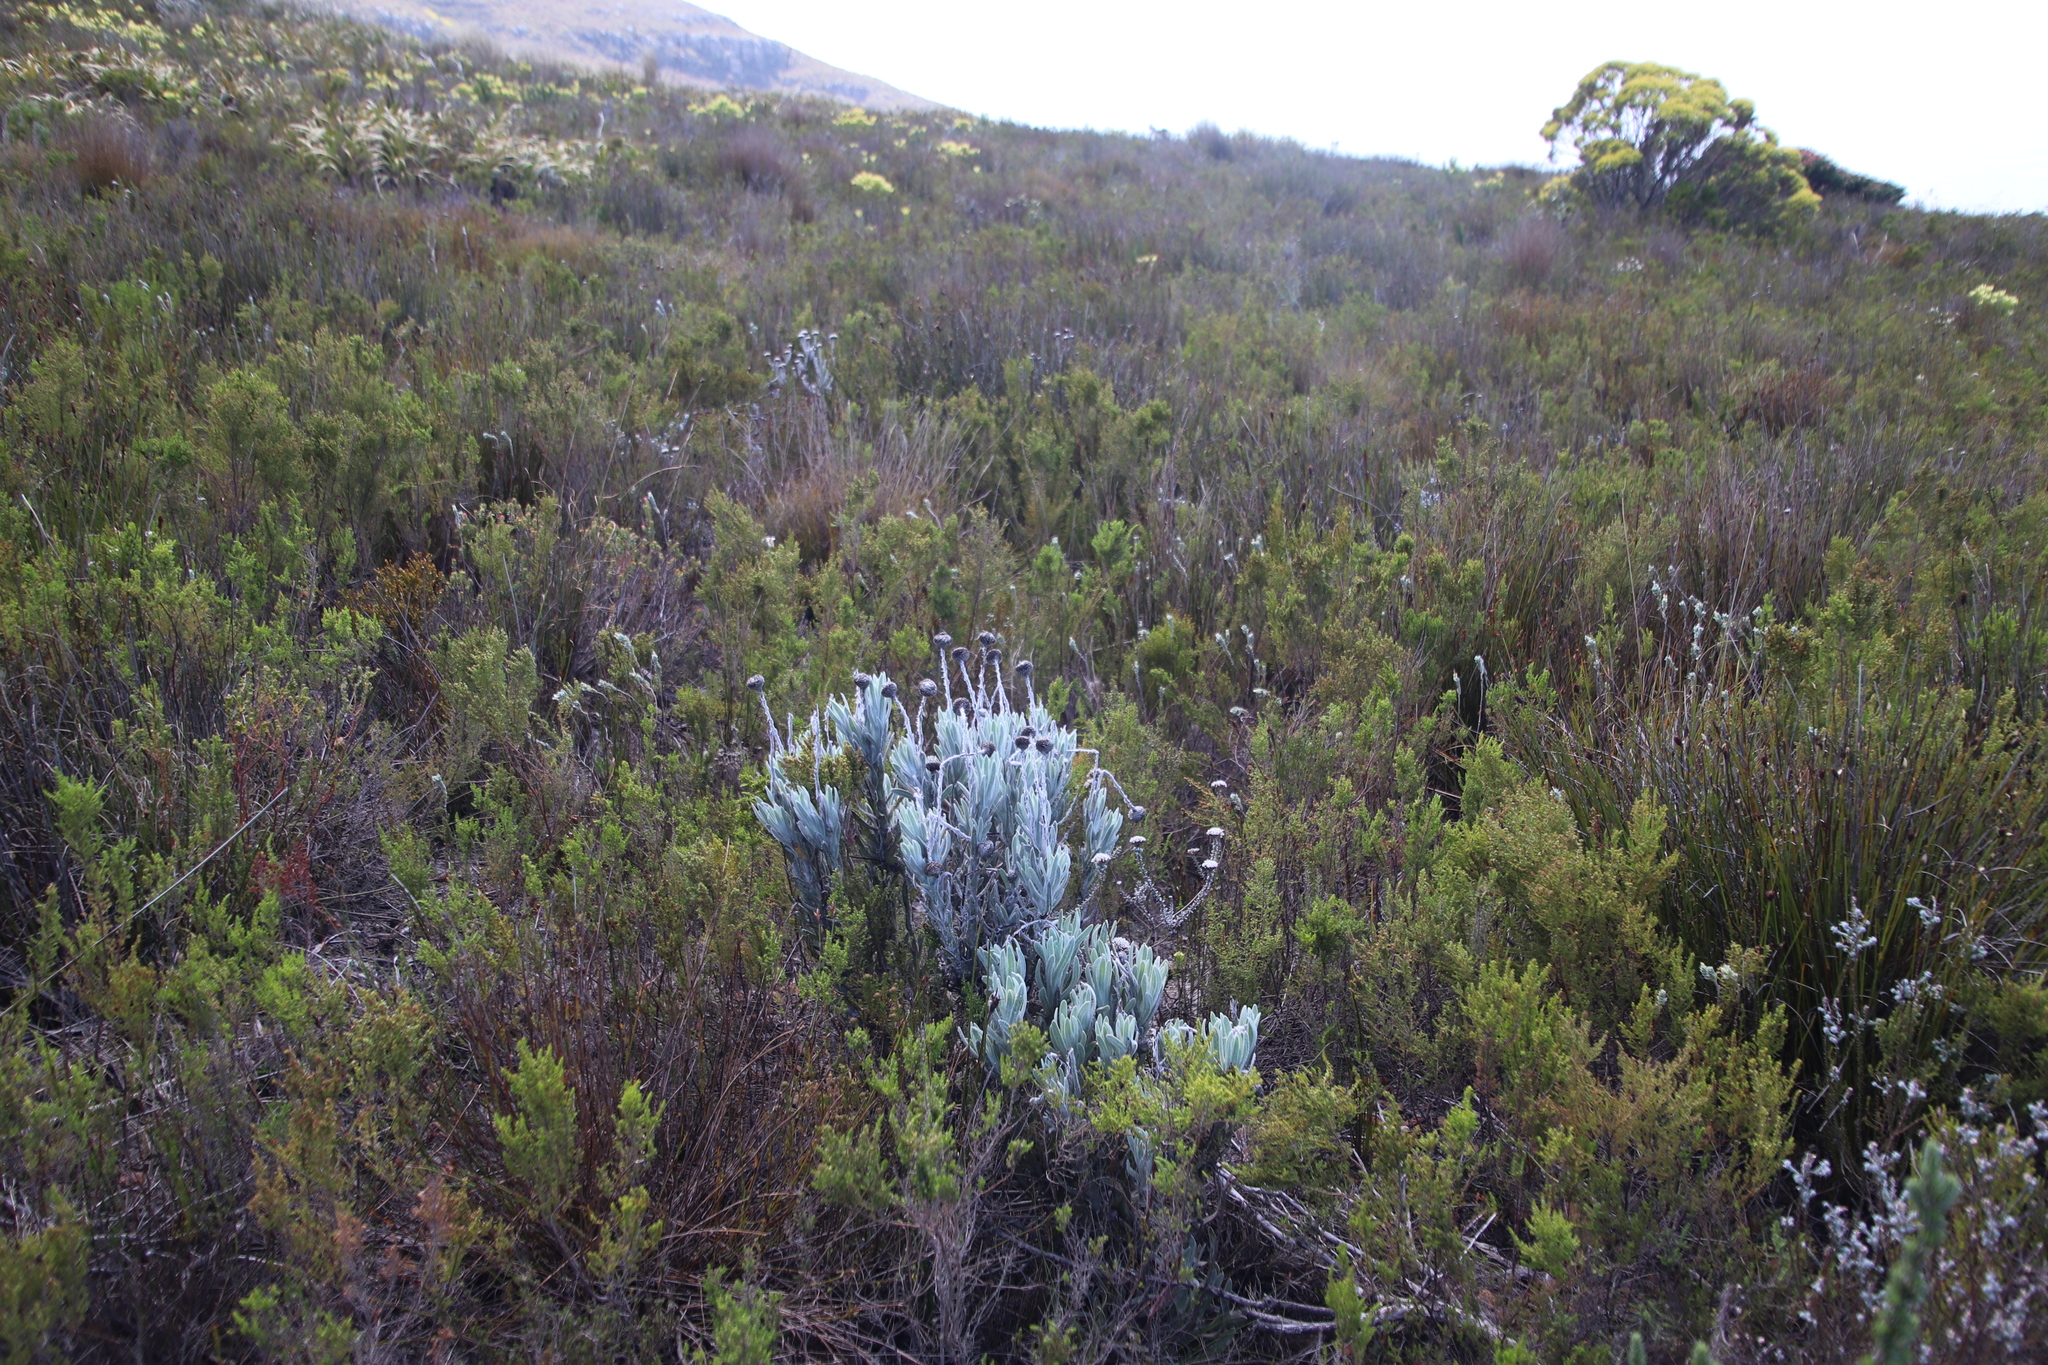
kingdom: Plantae
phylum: Tracheophyta
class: Magnoliopsida
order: Asterales
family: Asteraceae
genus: Syncarpha
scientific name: Syncarpha vestita
